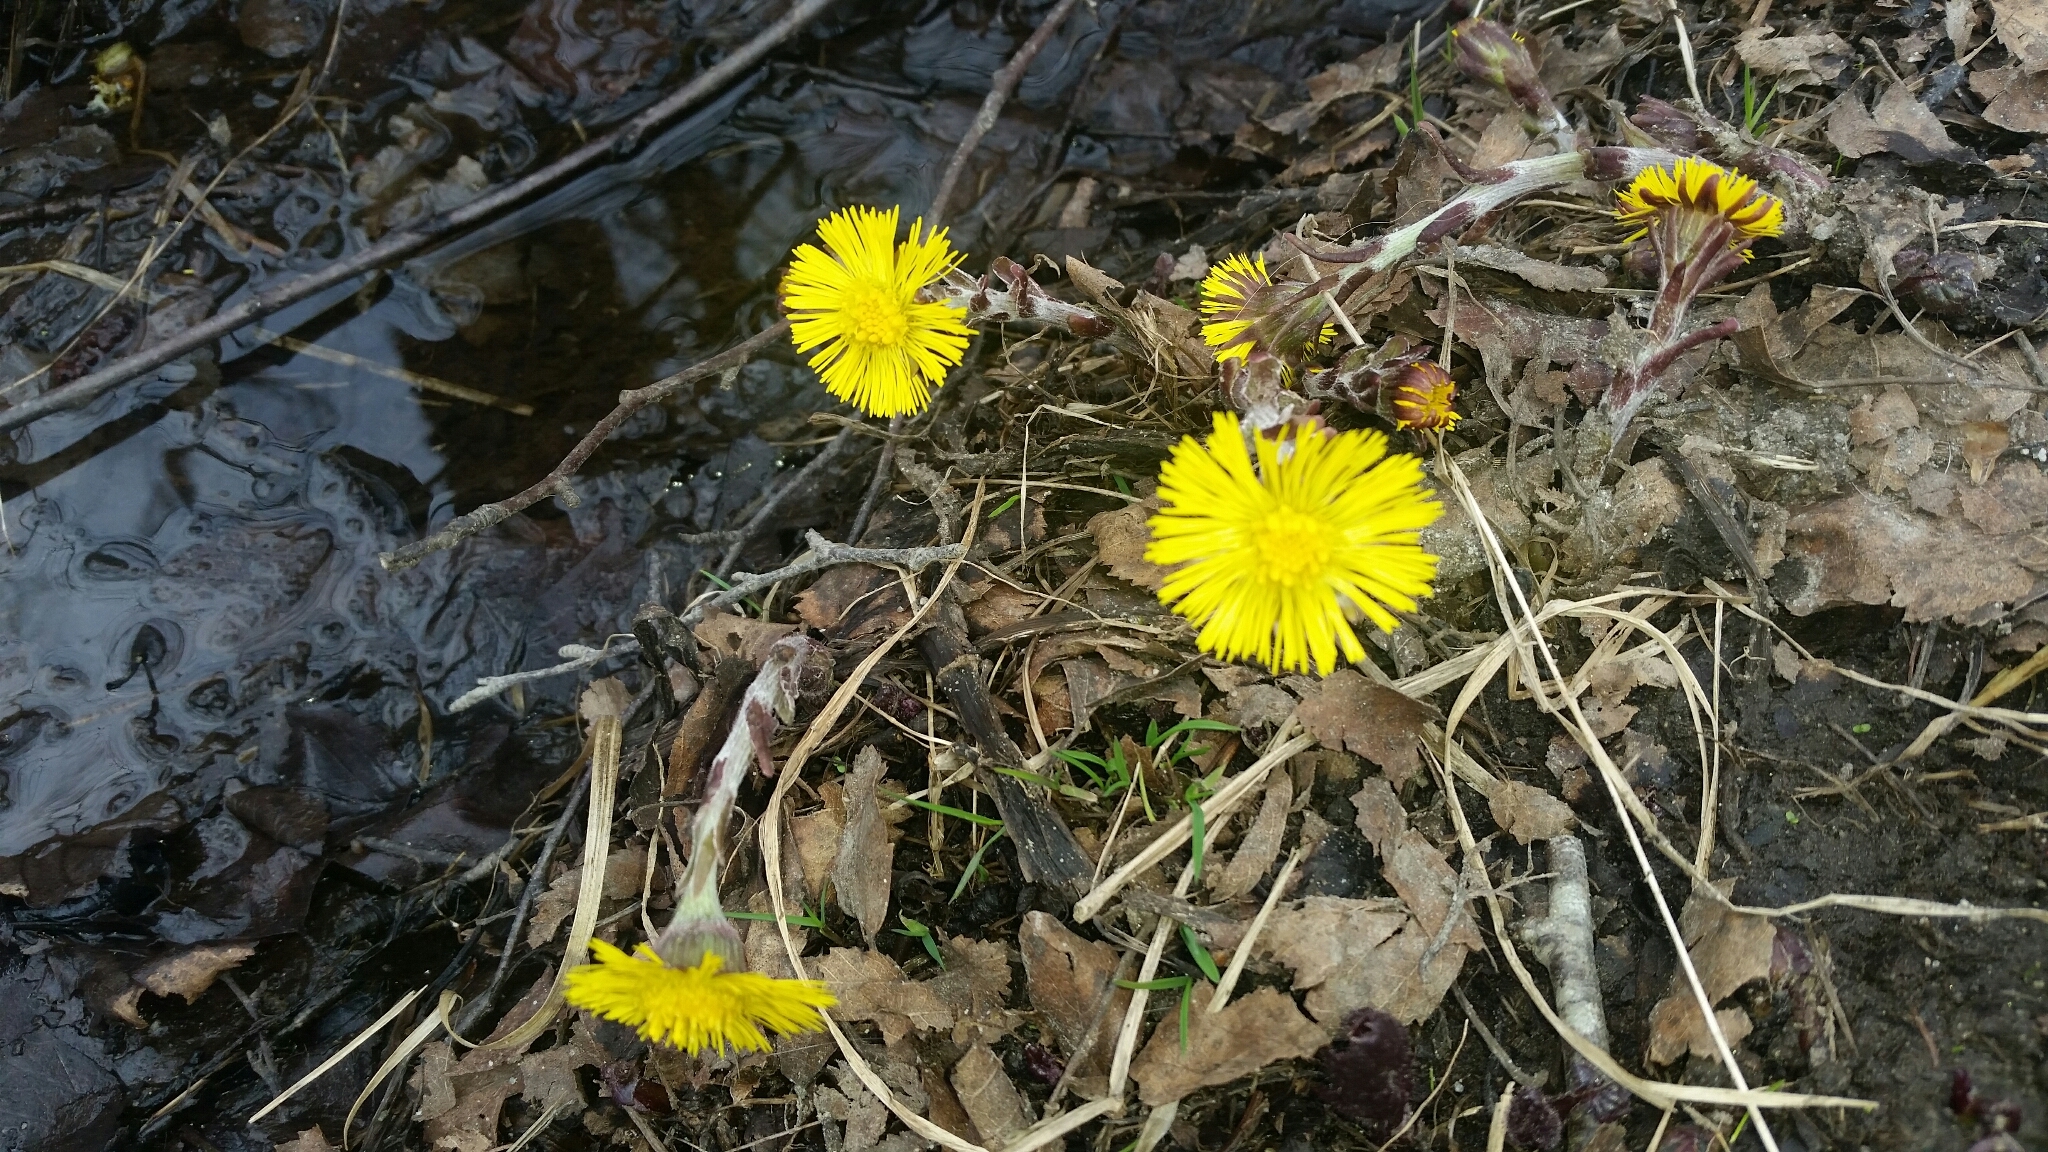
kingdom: Plantae
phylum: Tracheophyta
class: Magnoliopsida
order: Asterales
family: Asteraceae
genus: Tussilago
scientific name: Tussilago farfara
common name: Coltsfoot
